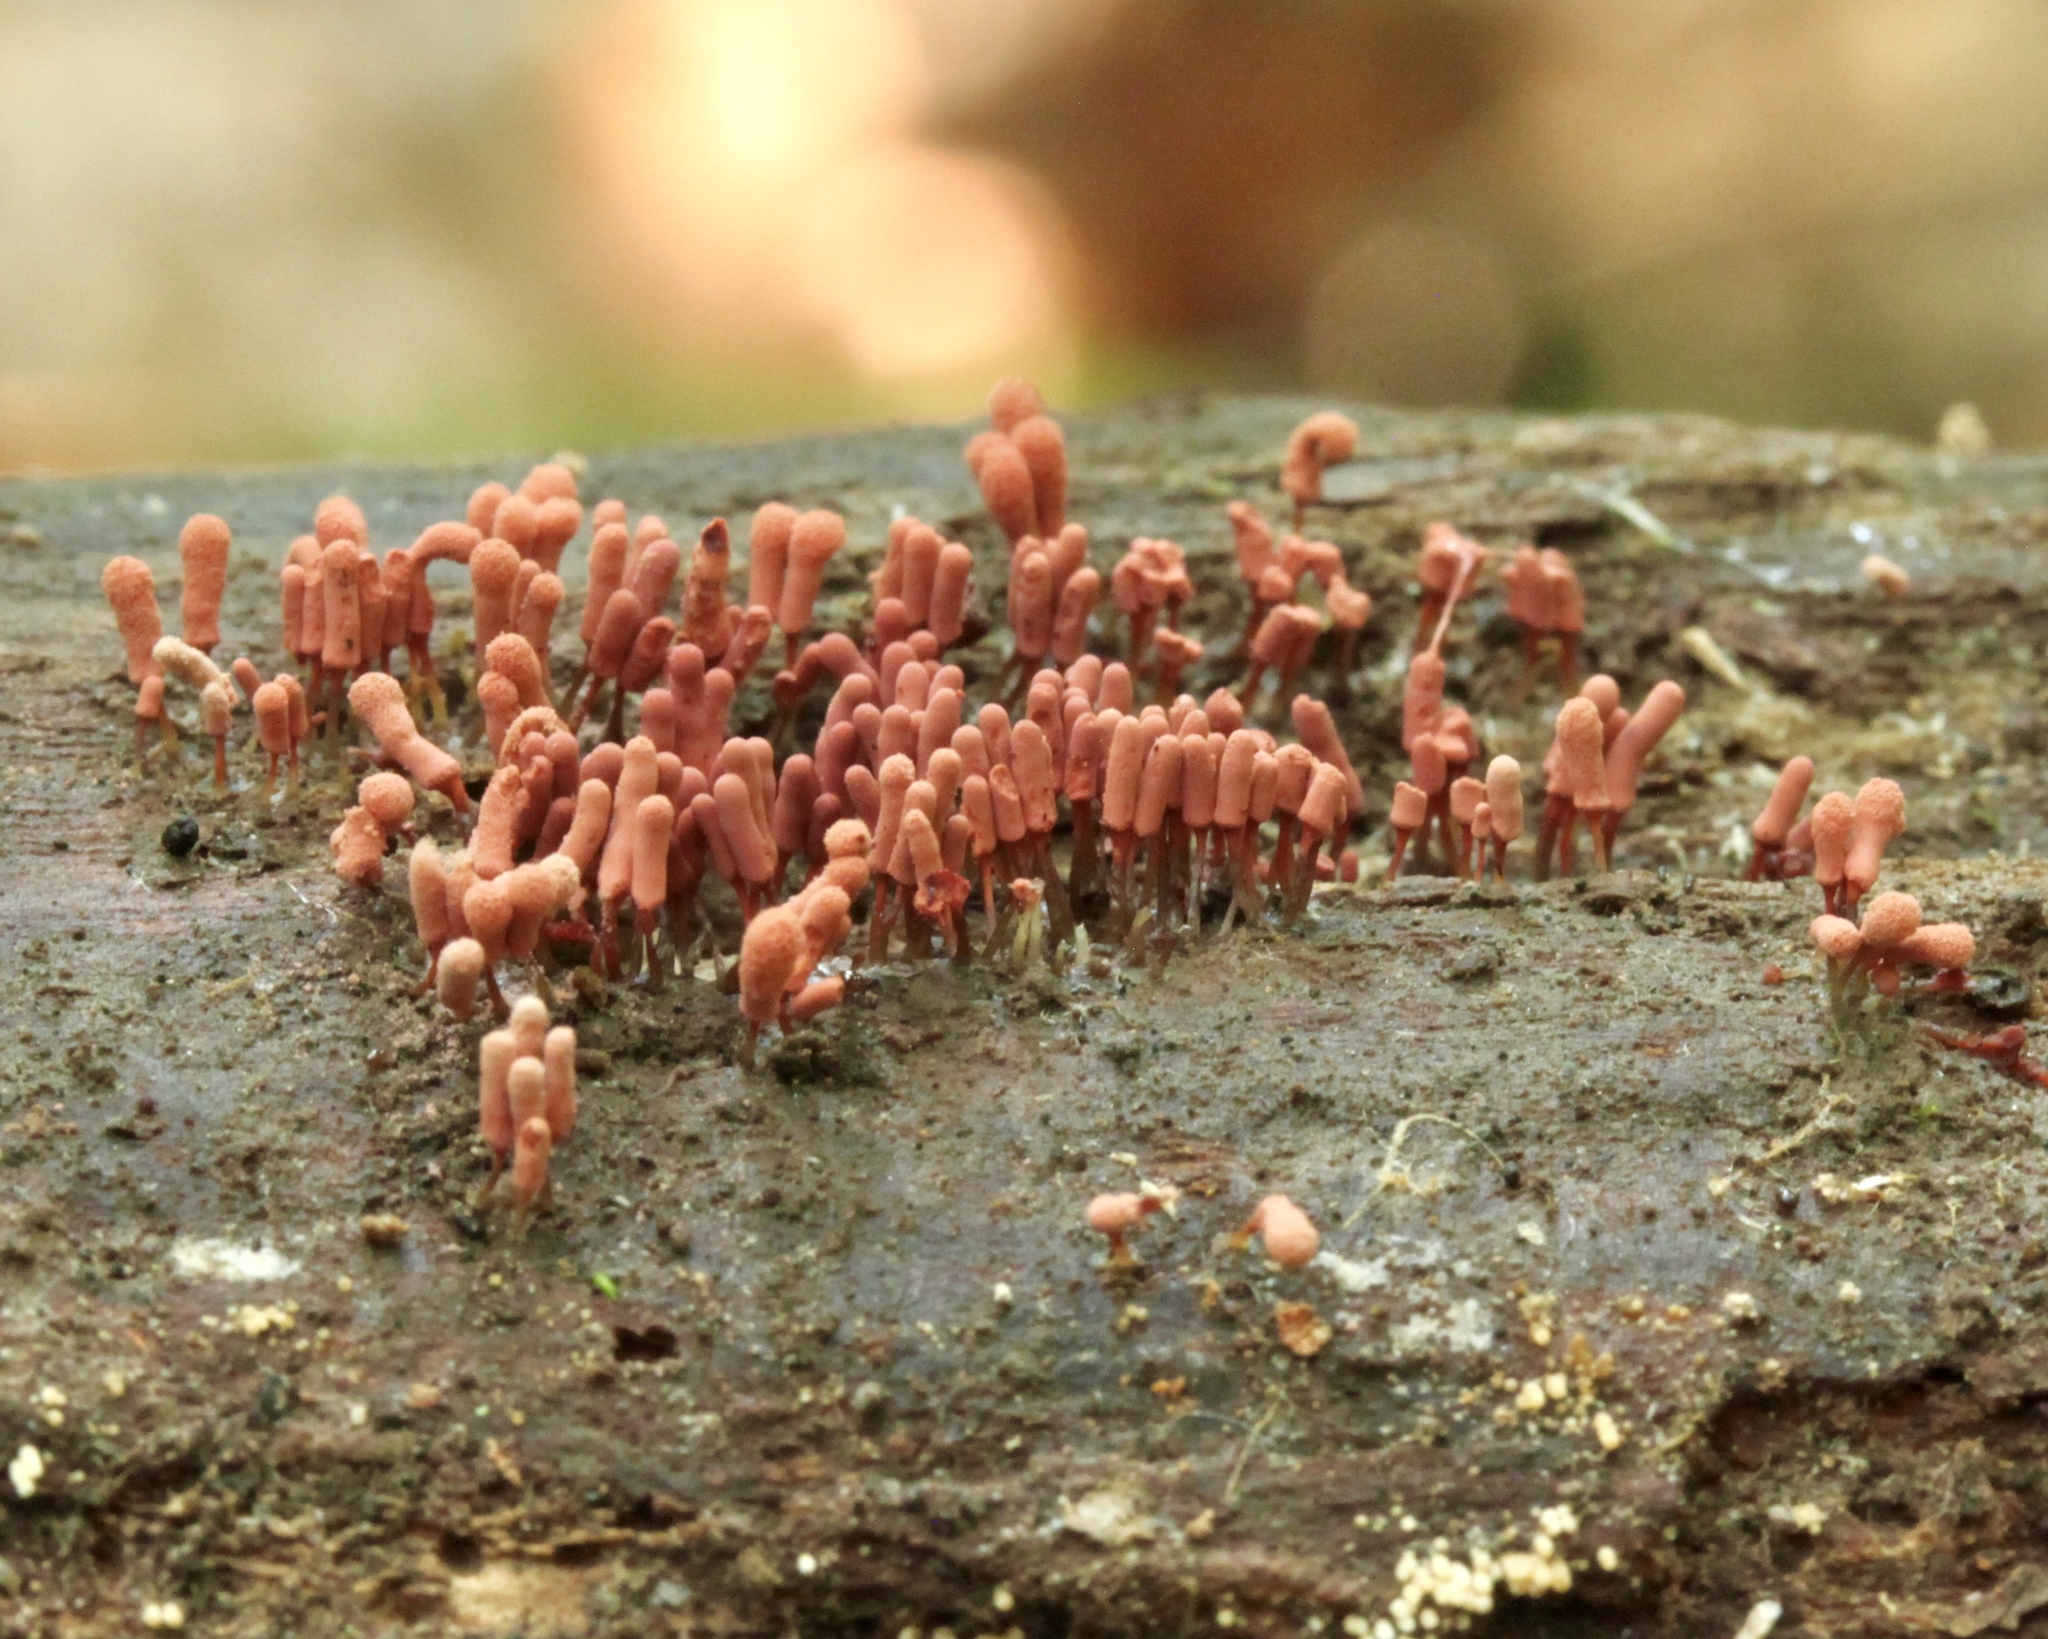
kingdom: Protozoa
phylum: Mycetozoa
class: Myxomycetes
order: Trichiales
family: Arcyriaceae
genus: Arcyria
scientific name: Arcyria denudata
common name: Carnival candy slime mold
